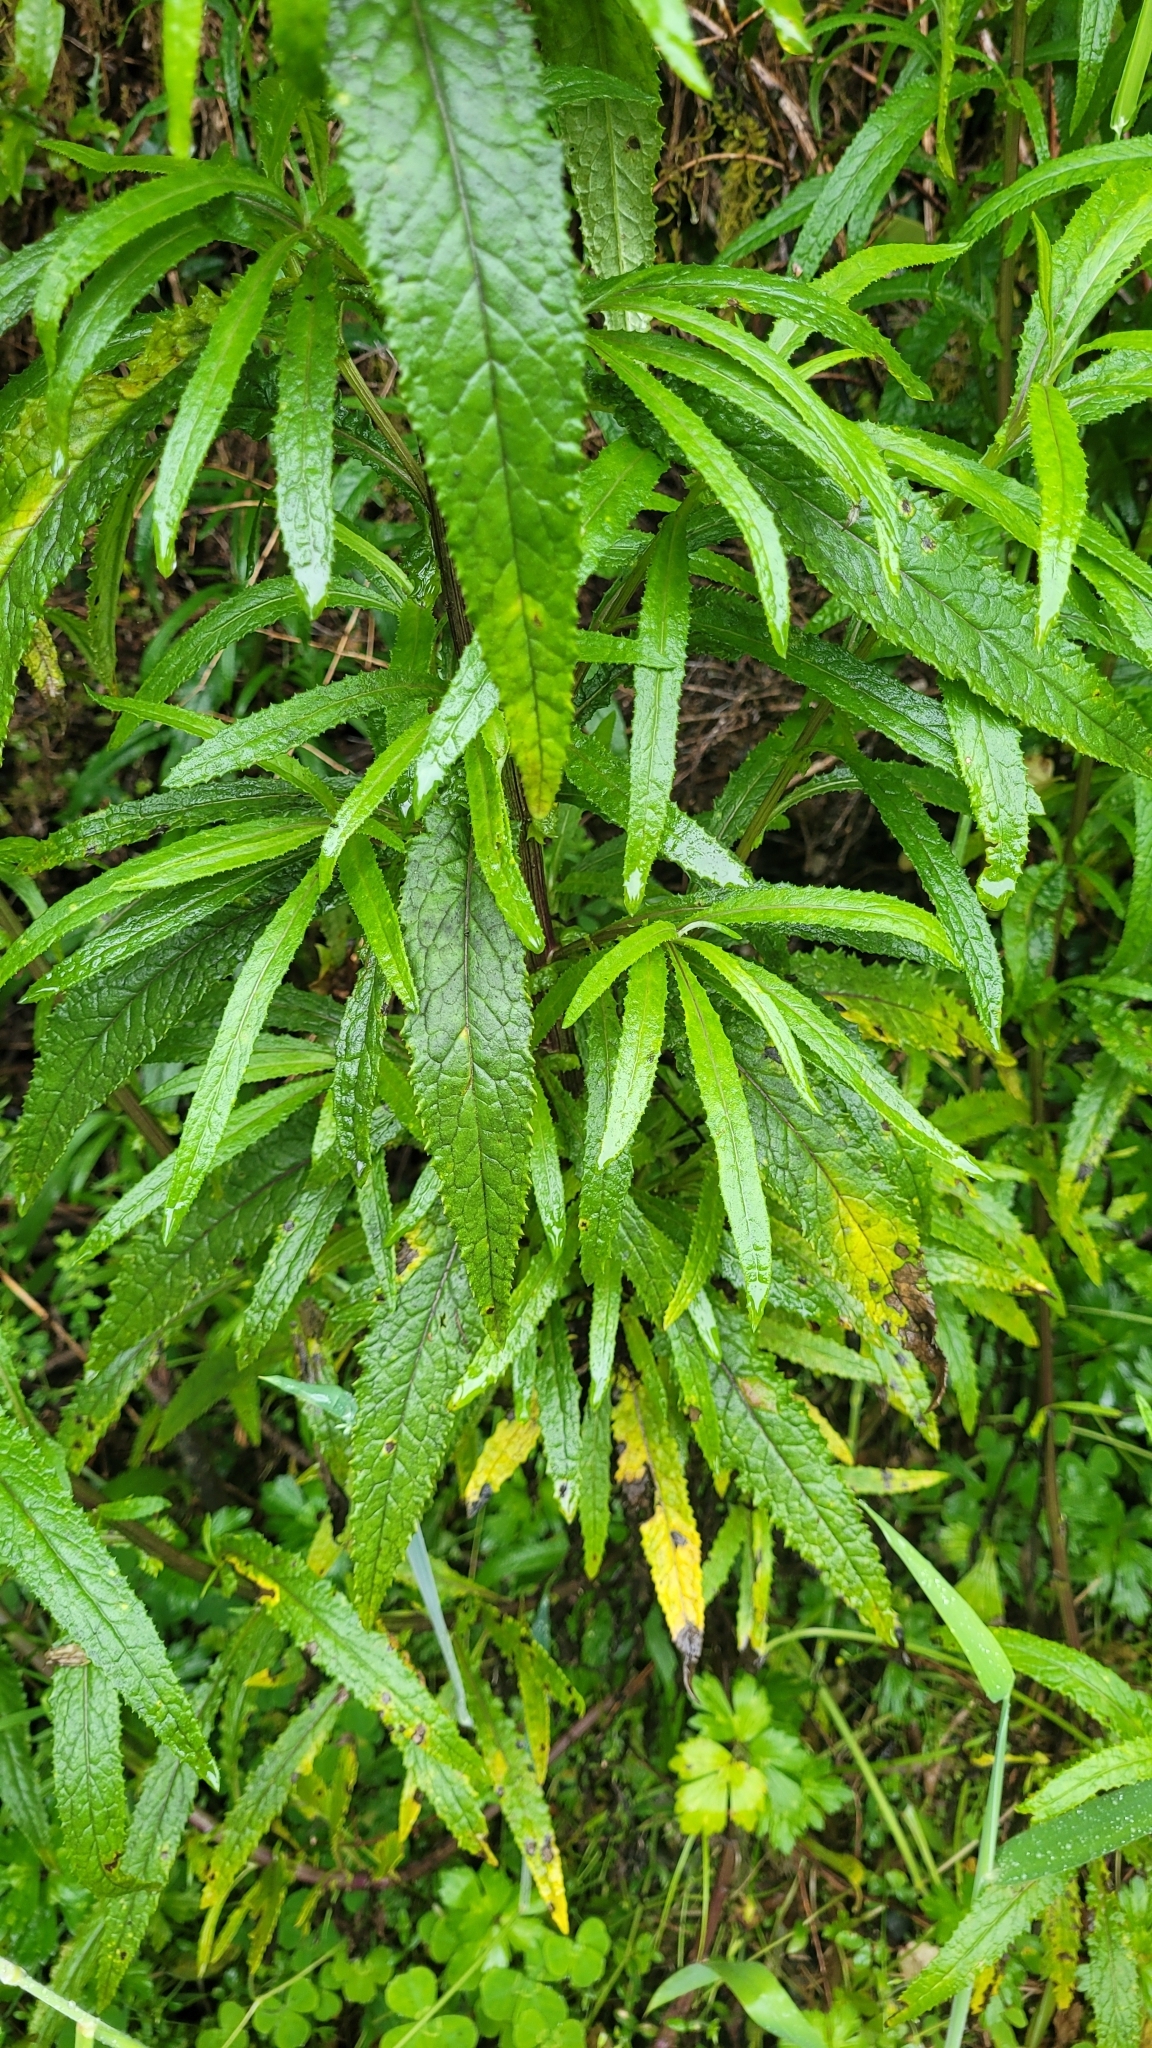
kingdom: Plantae
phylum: Tracheophyta
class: Magnoliopsida
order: Asterales
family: Asteraceae
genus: Senecio
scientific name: Senecio minimus
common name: Toothed fireweed
